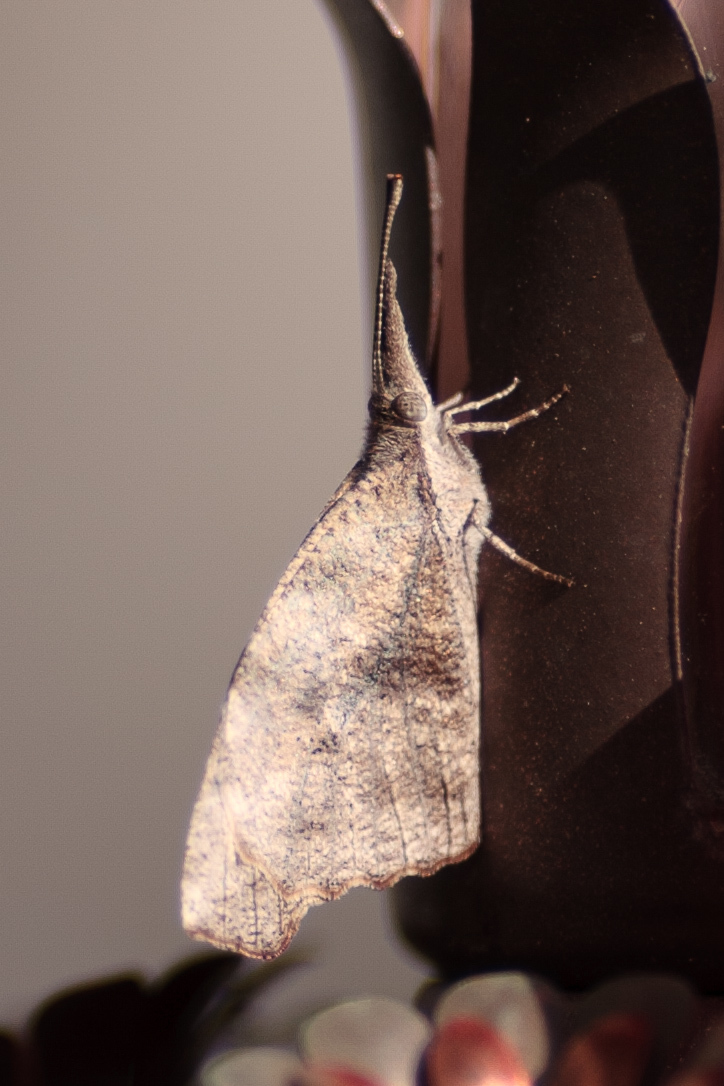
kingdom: Animalia
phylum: Arthropoda
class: Insecta
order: Lepidoptera
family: Nymphalidae
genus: Libytheana
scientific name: Libytheana carinenta
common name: American snout
